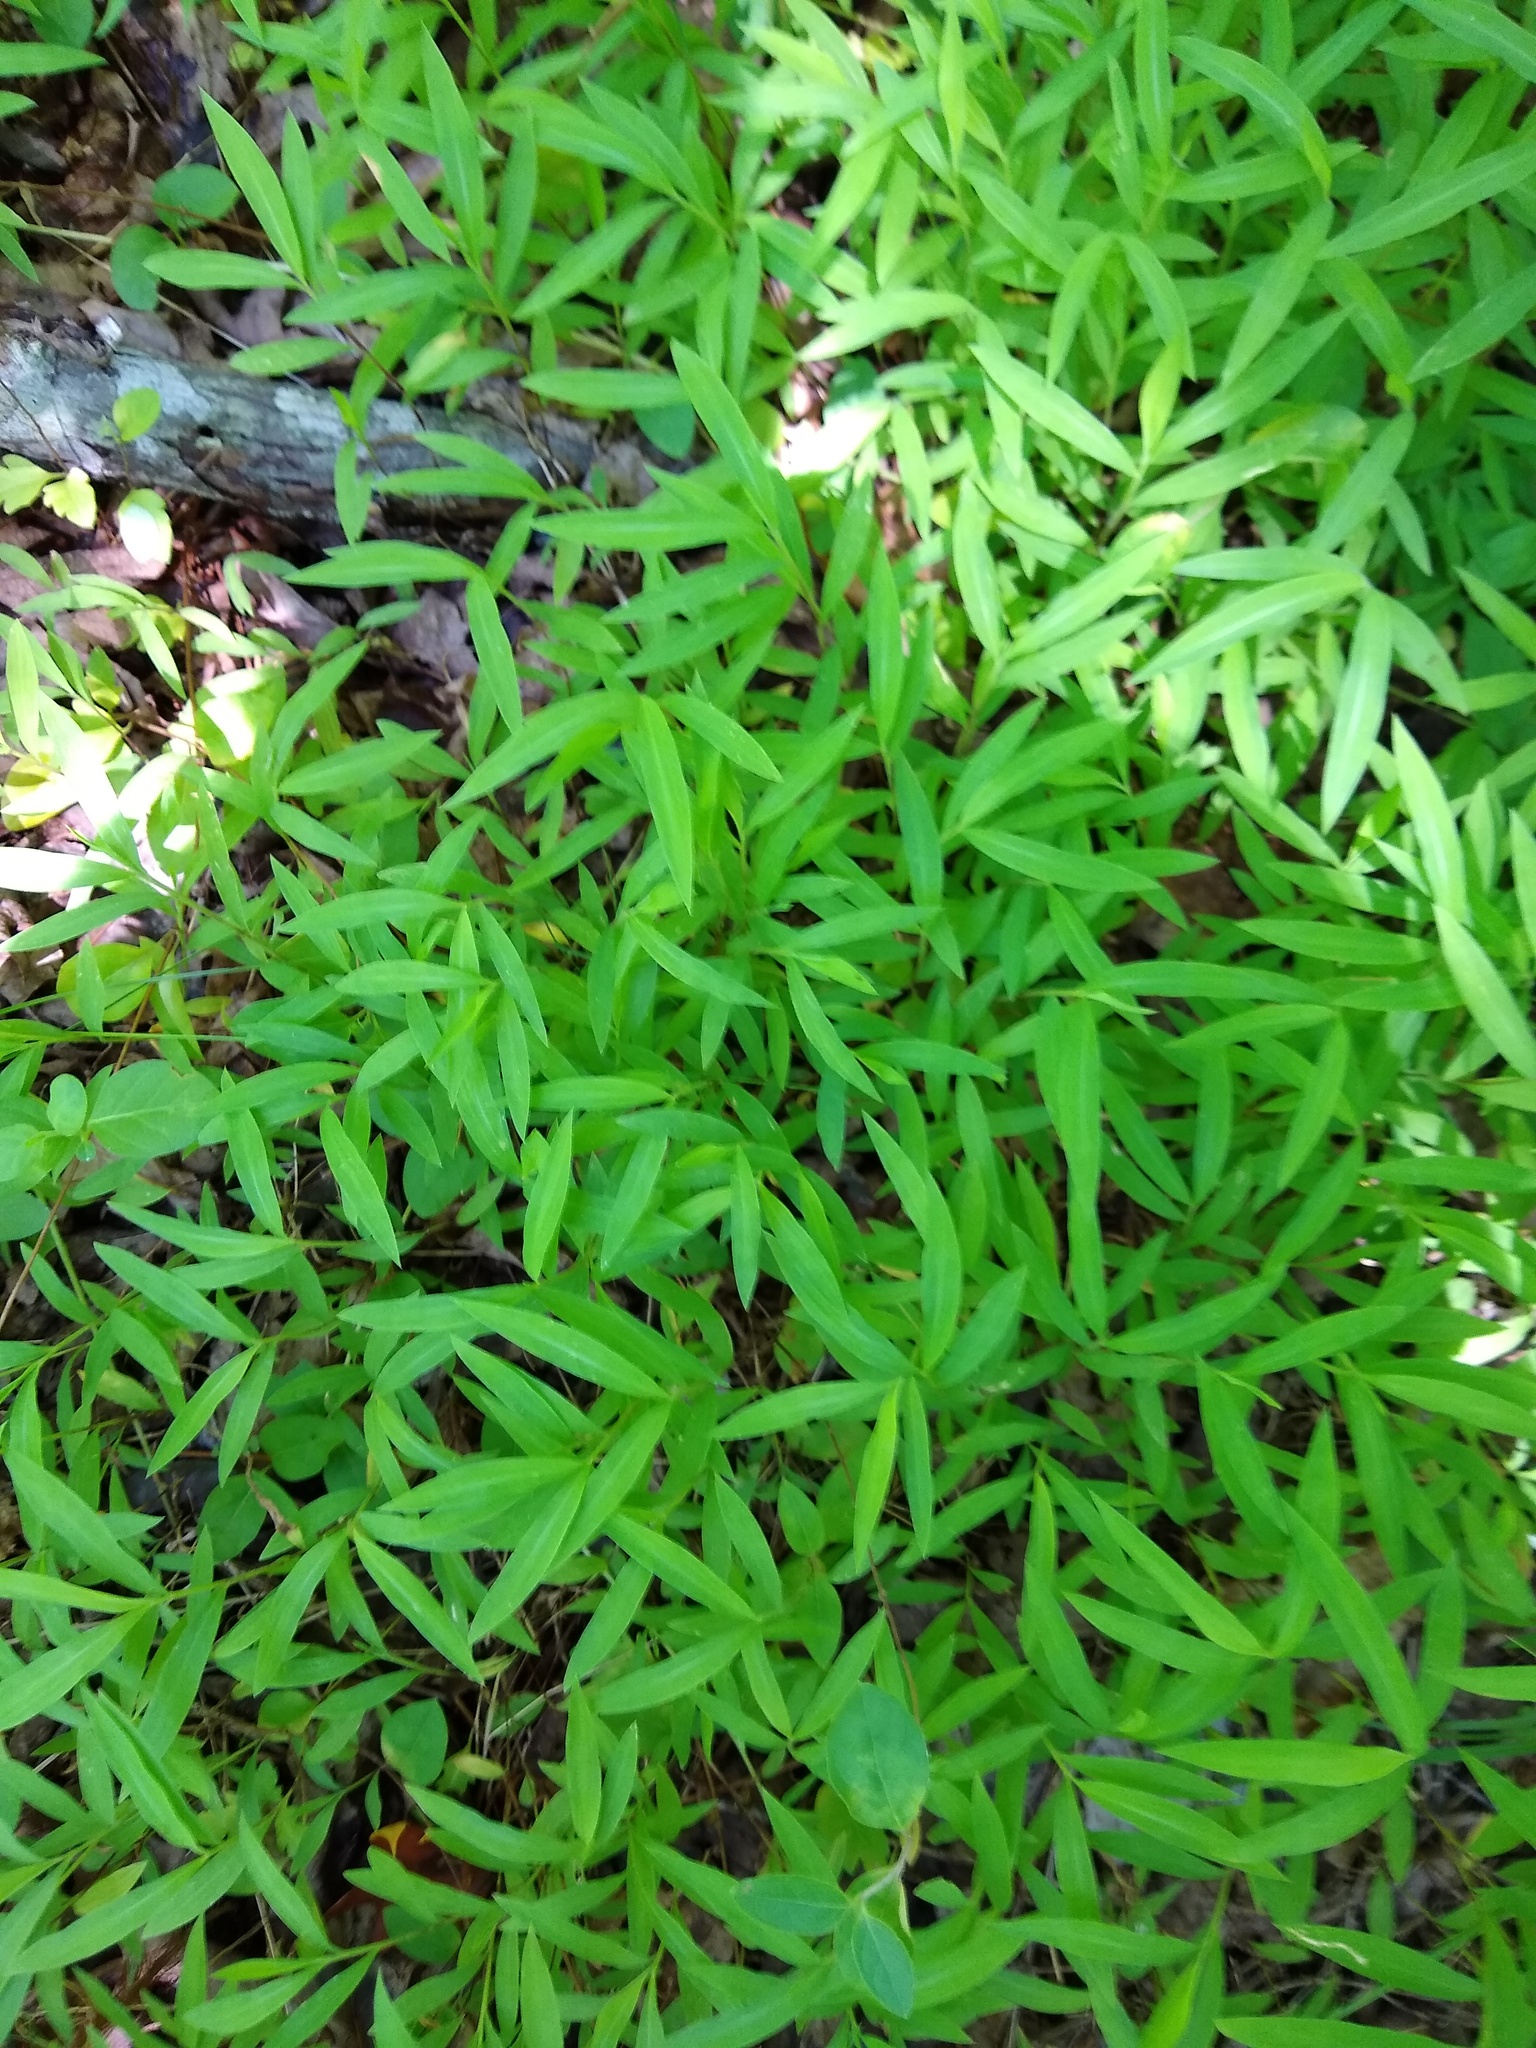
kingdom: Plantae
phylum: Tracheophyta
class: Liliopsida
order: Poales
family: Poaceae
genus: Microstegium
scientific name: Microstegium vimineum
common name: Japanese stiltgrass
